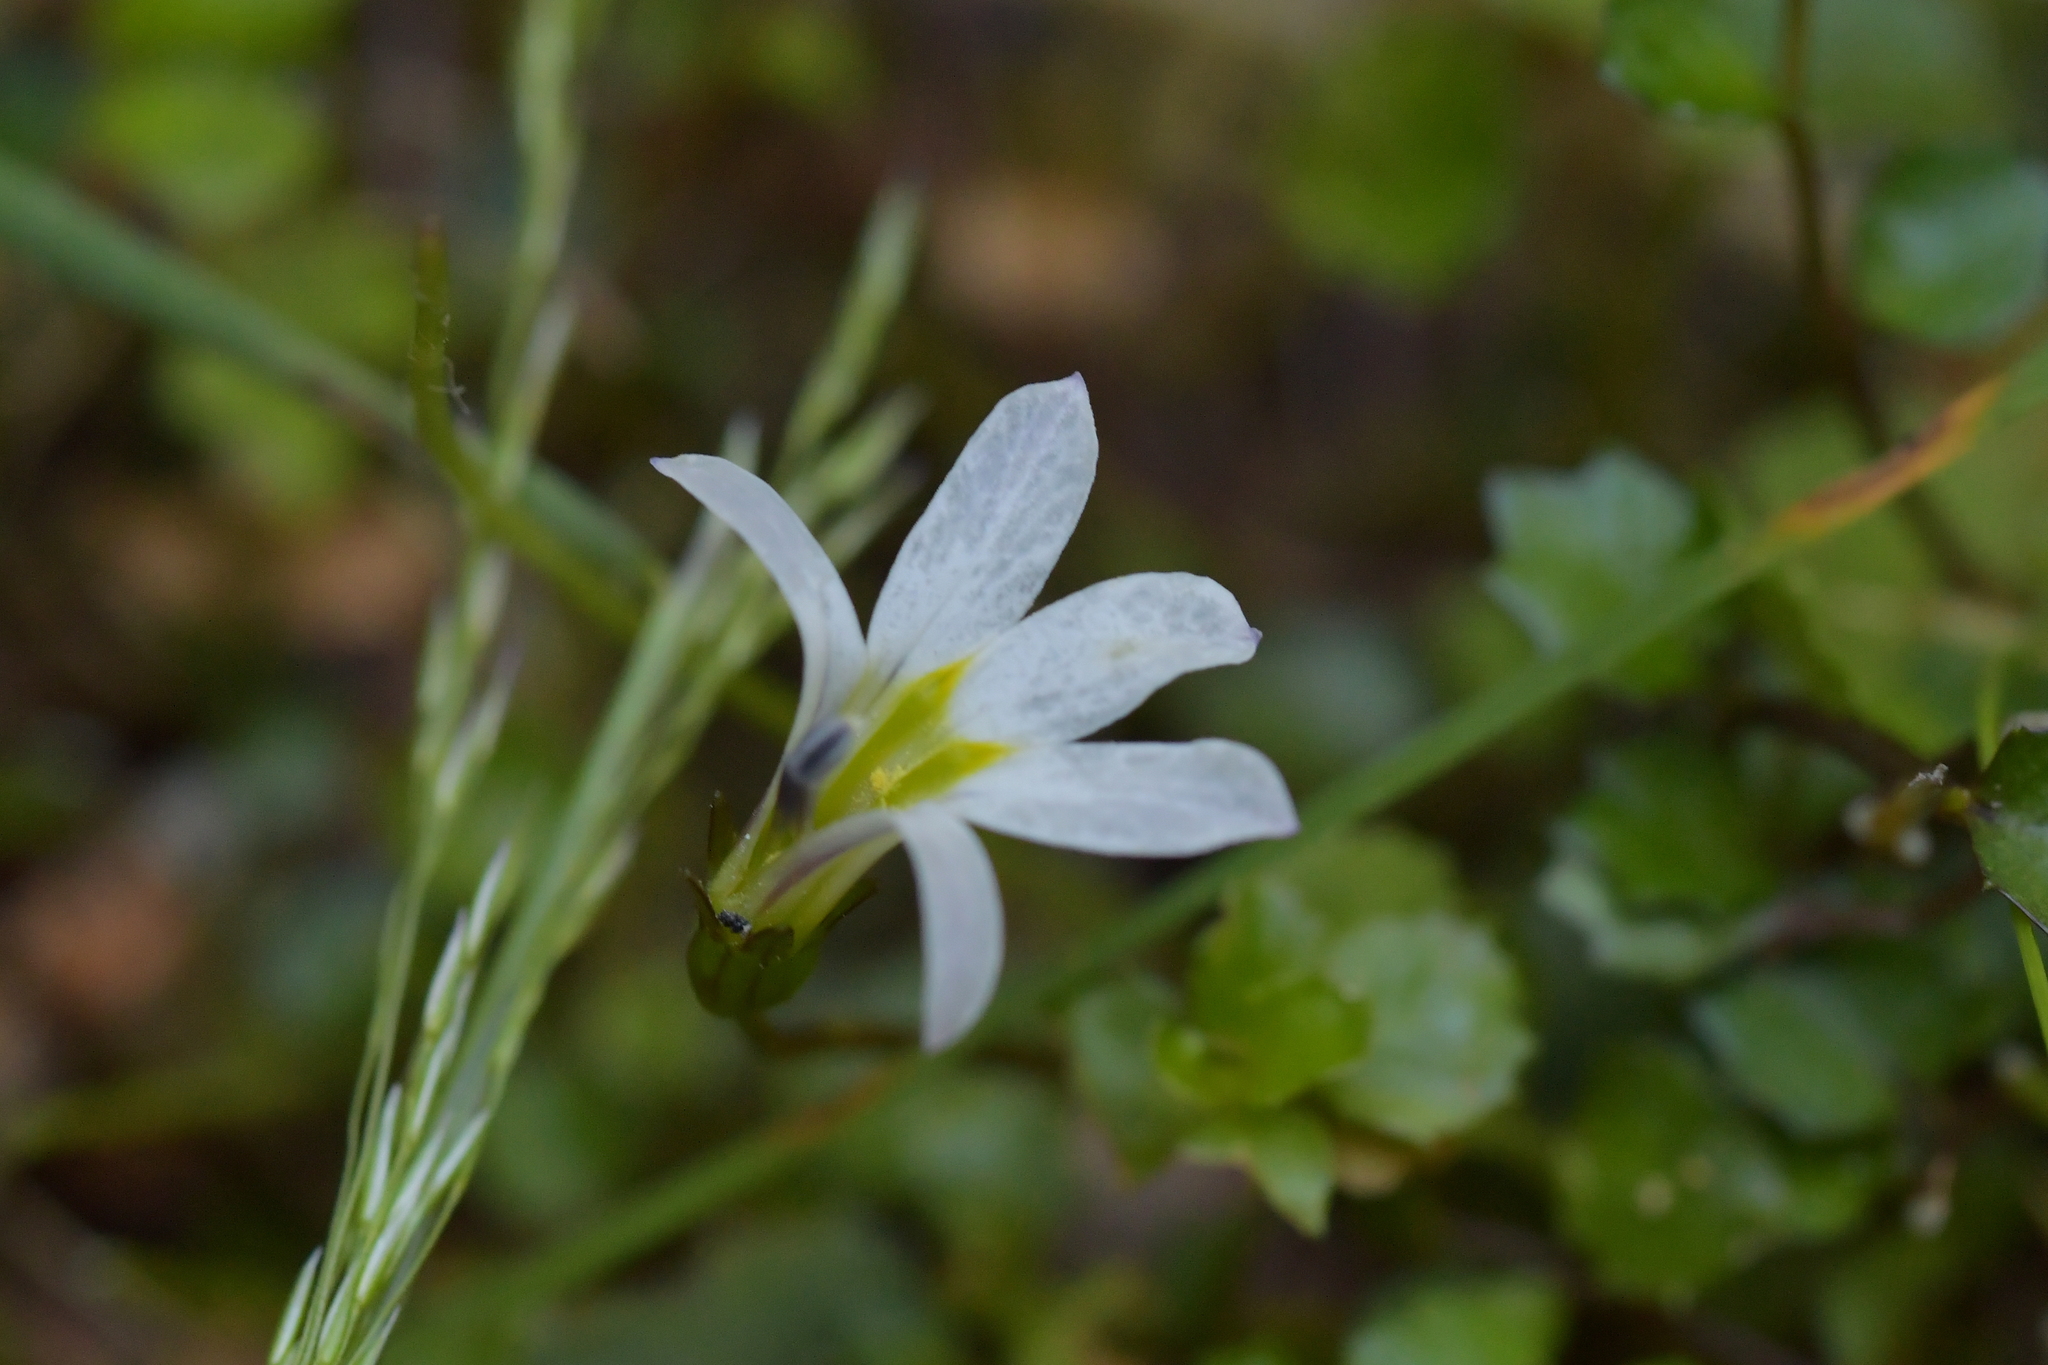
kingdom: Plantae
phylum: Tracheophyta
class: Magnoliopsida
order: Asterales
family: Campanulaceae
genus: Lobelia
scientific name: Lobelia angulata
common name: Lawn lobelia
